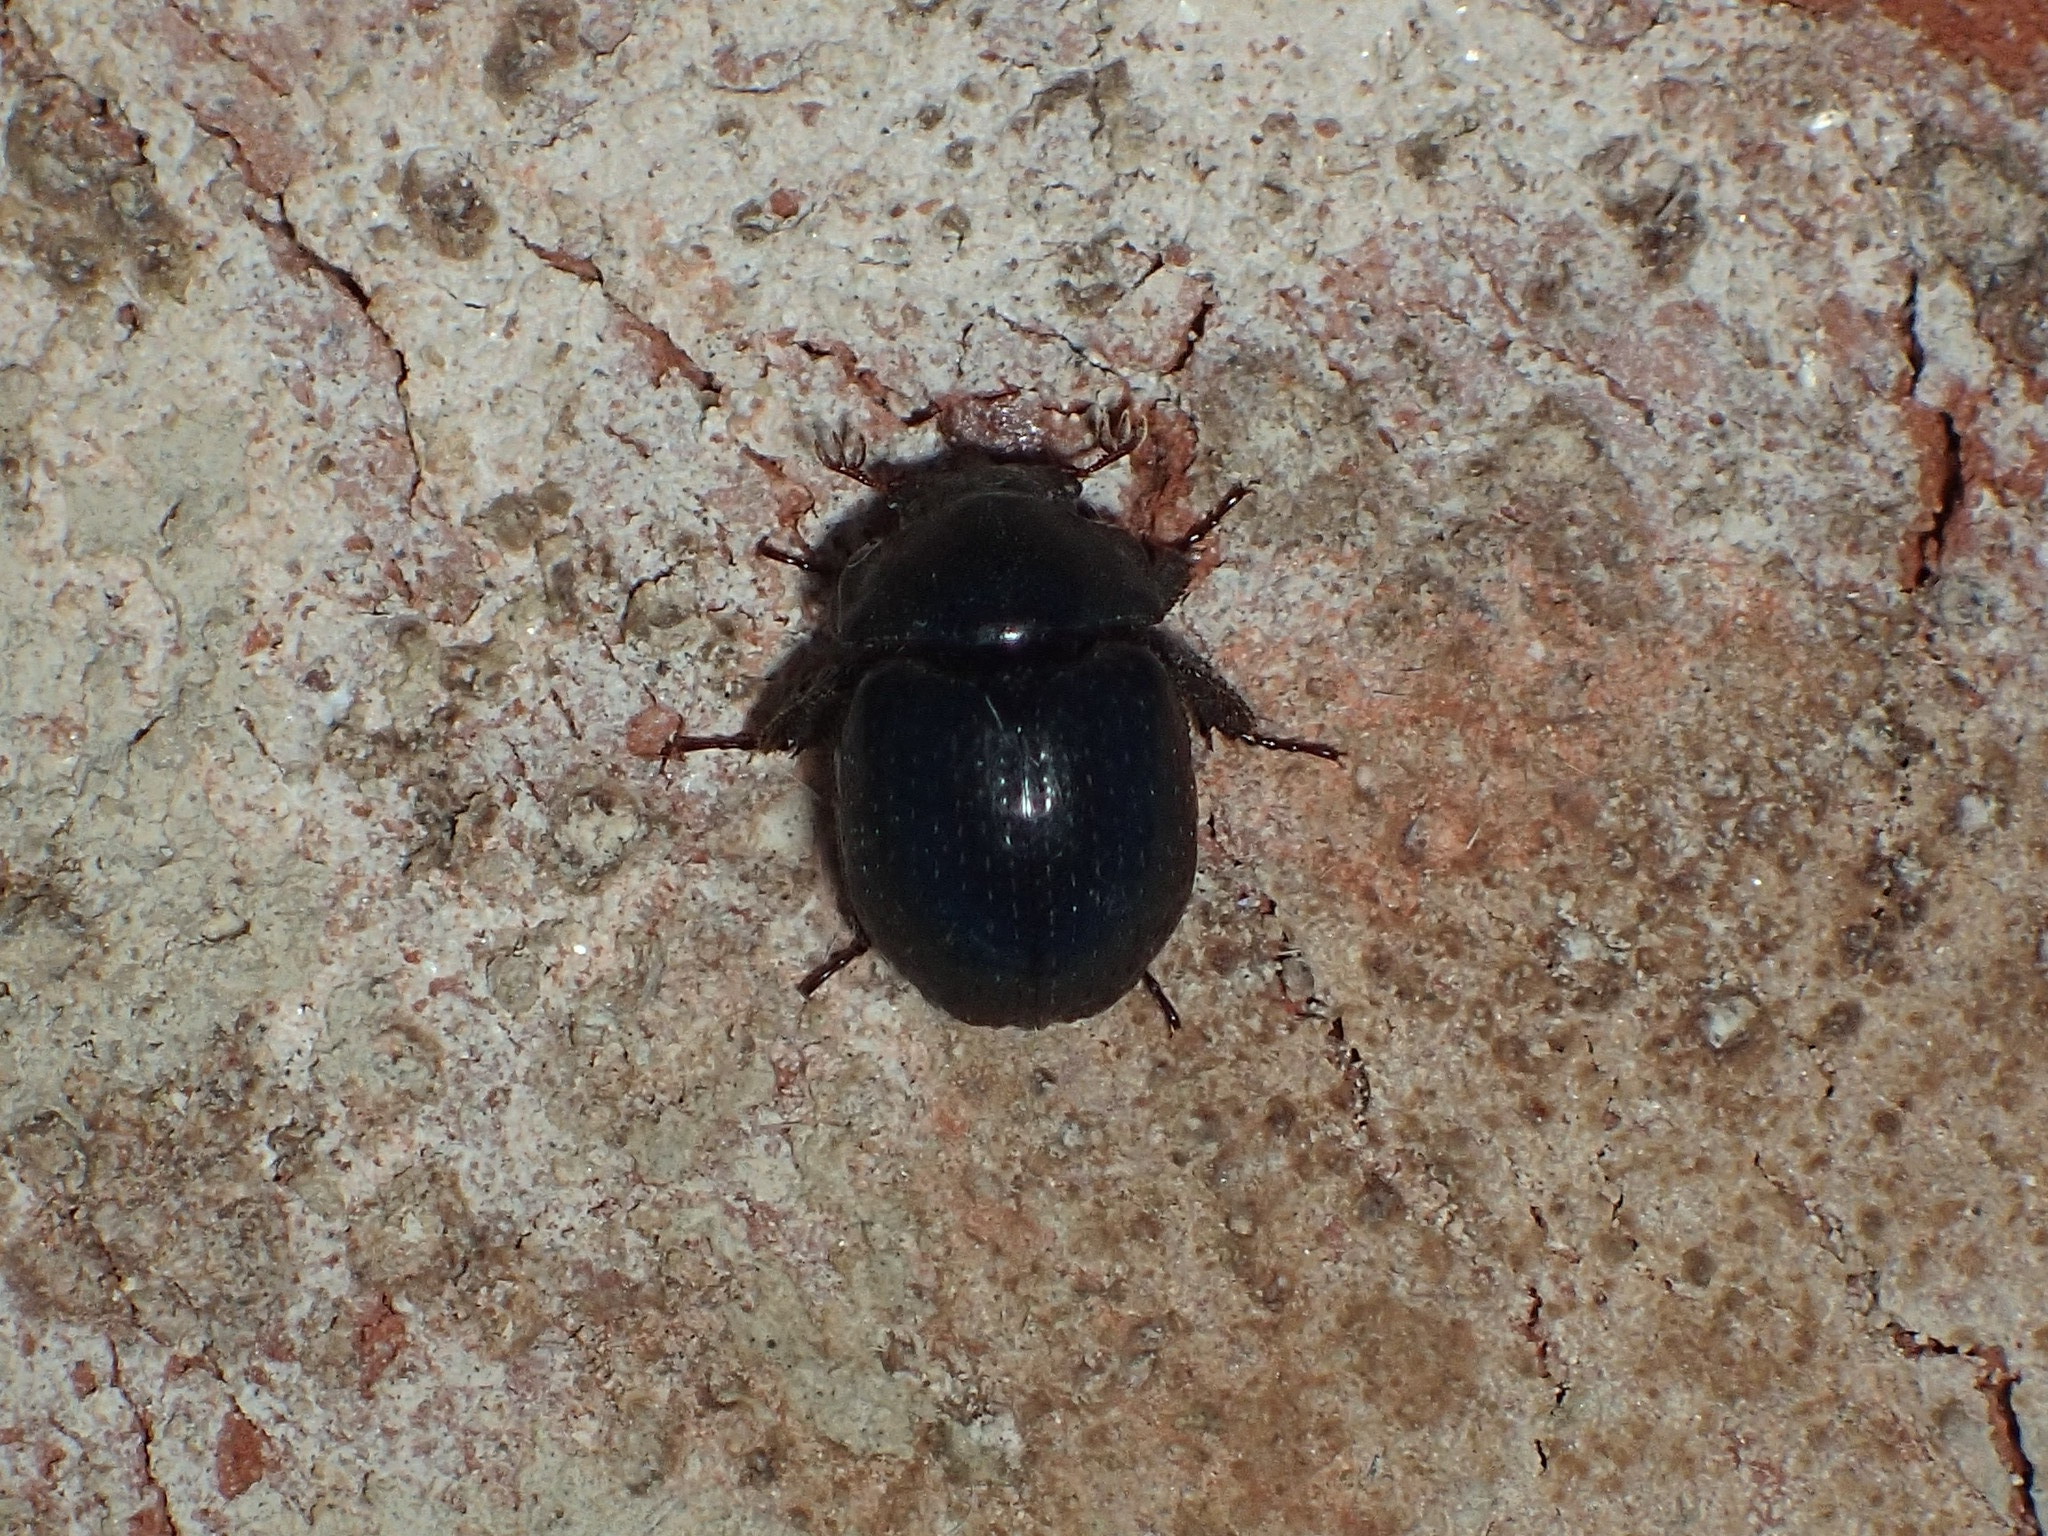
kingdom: Animalia
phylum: Arthropoda
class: Insecta
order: Coleoptera
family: Hybosoridae
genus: Germarostes
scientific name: Germarostes globosus
